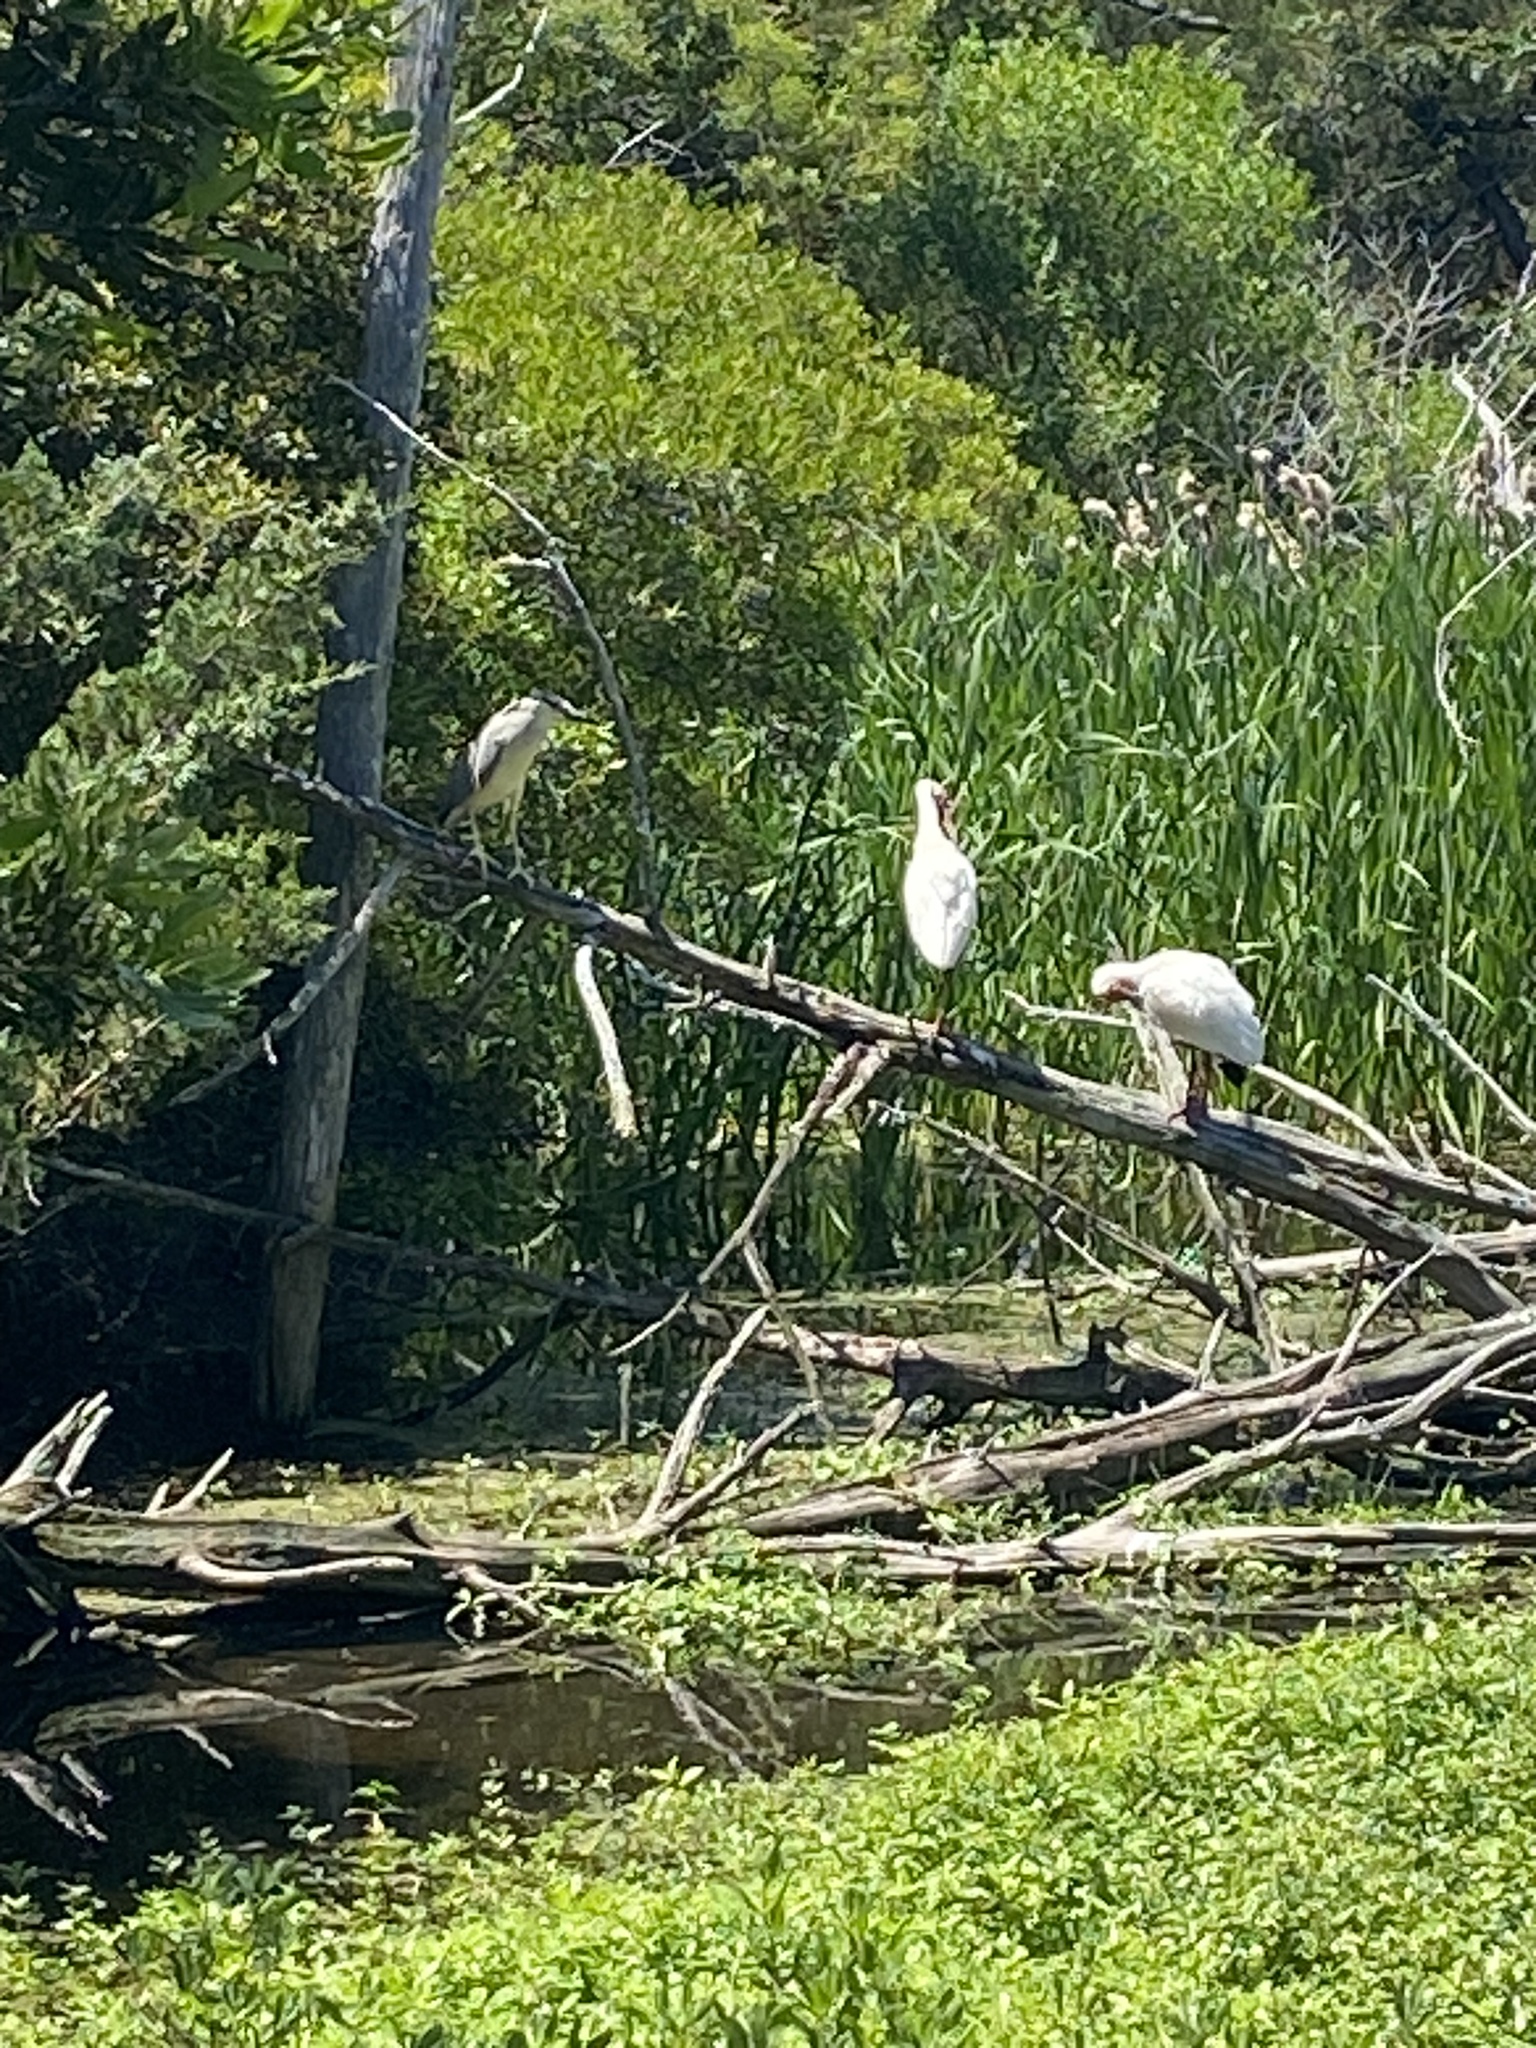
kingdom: Animalia
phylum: Chordata
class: Aves
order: Pelecaniformes
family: Ardeidae
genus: Nycticorax
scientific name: Nycticorax nycticorax
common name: Black-crowned night heron
